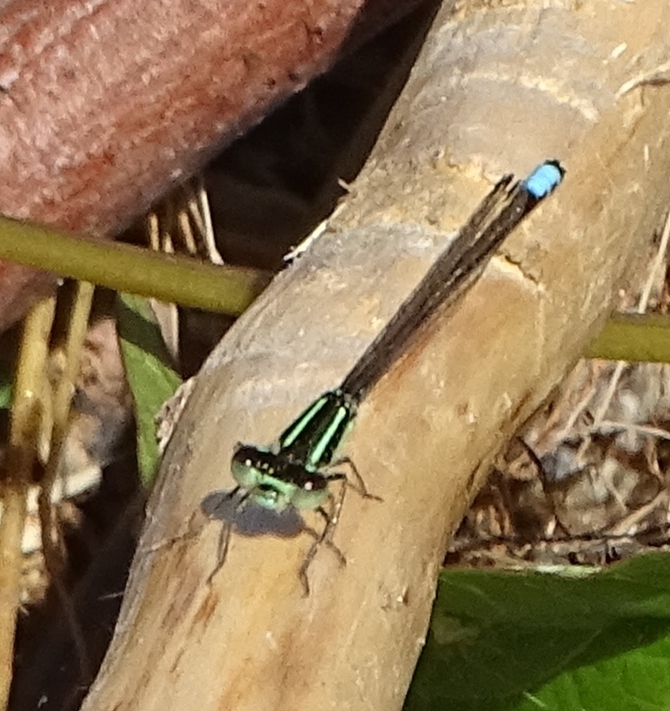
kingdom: Animalia
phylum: Arthropoda
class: Insecta
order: Odonata
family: Coenagrionidae
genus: Ischnura
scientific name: Ischnura verticalis
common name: Eastern forktail
